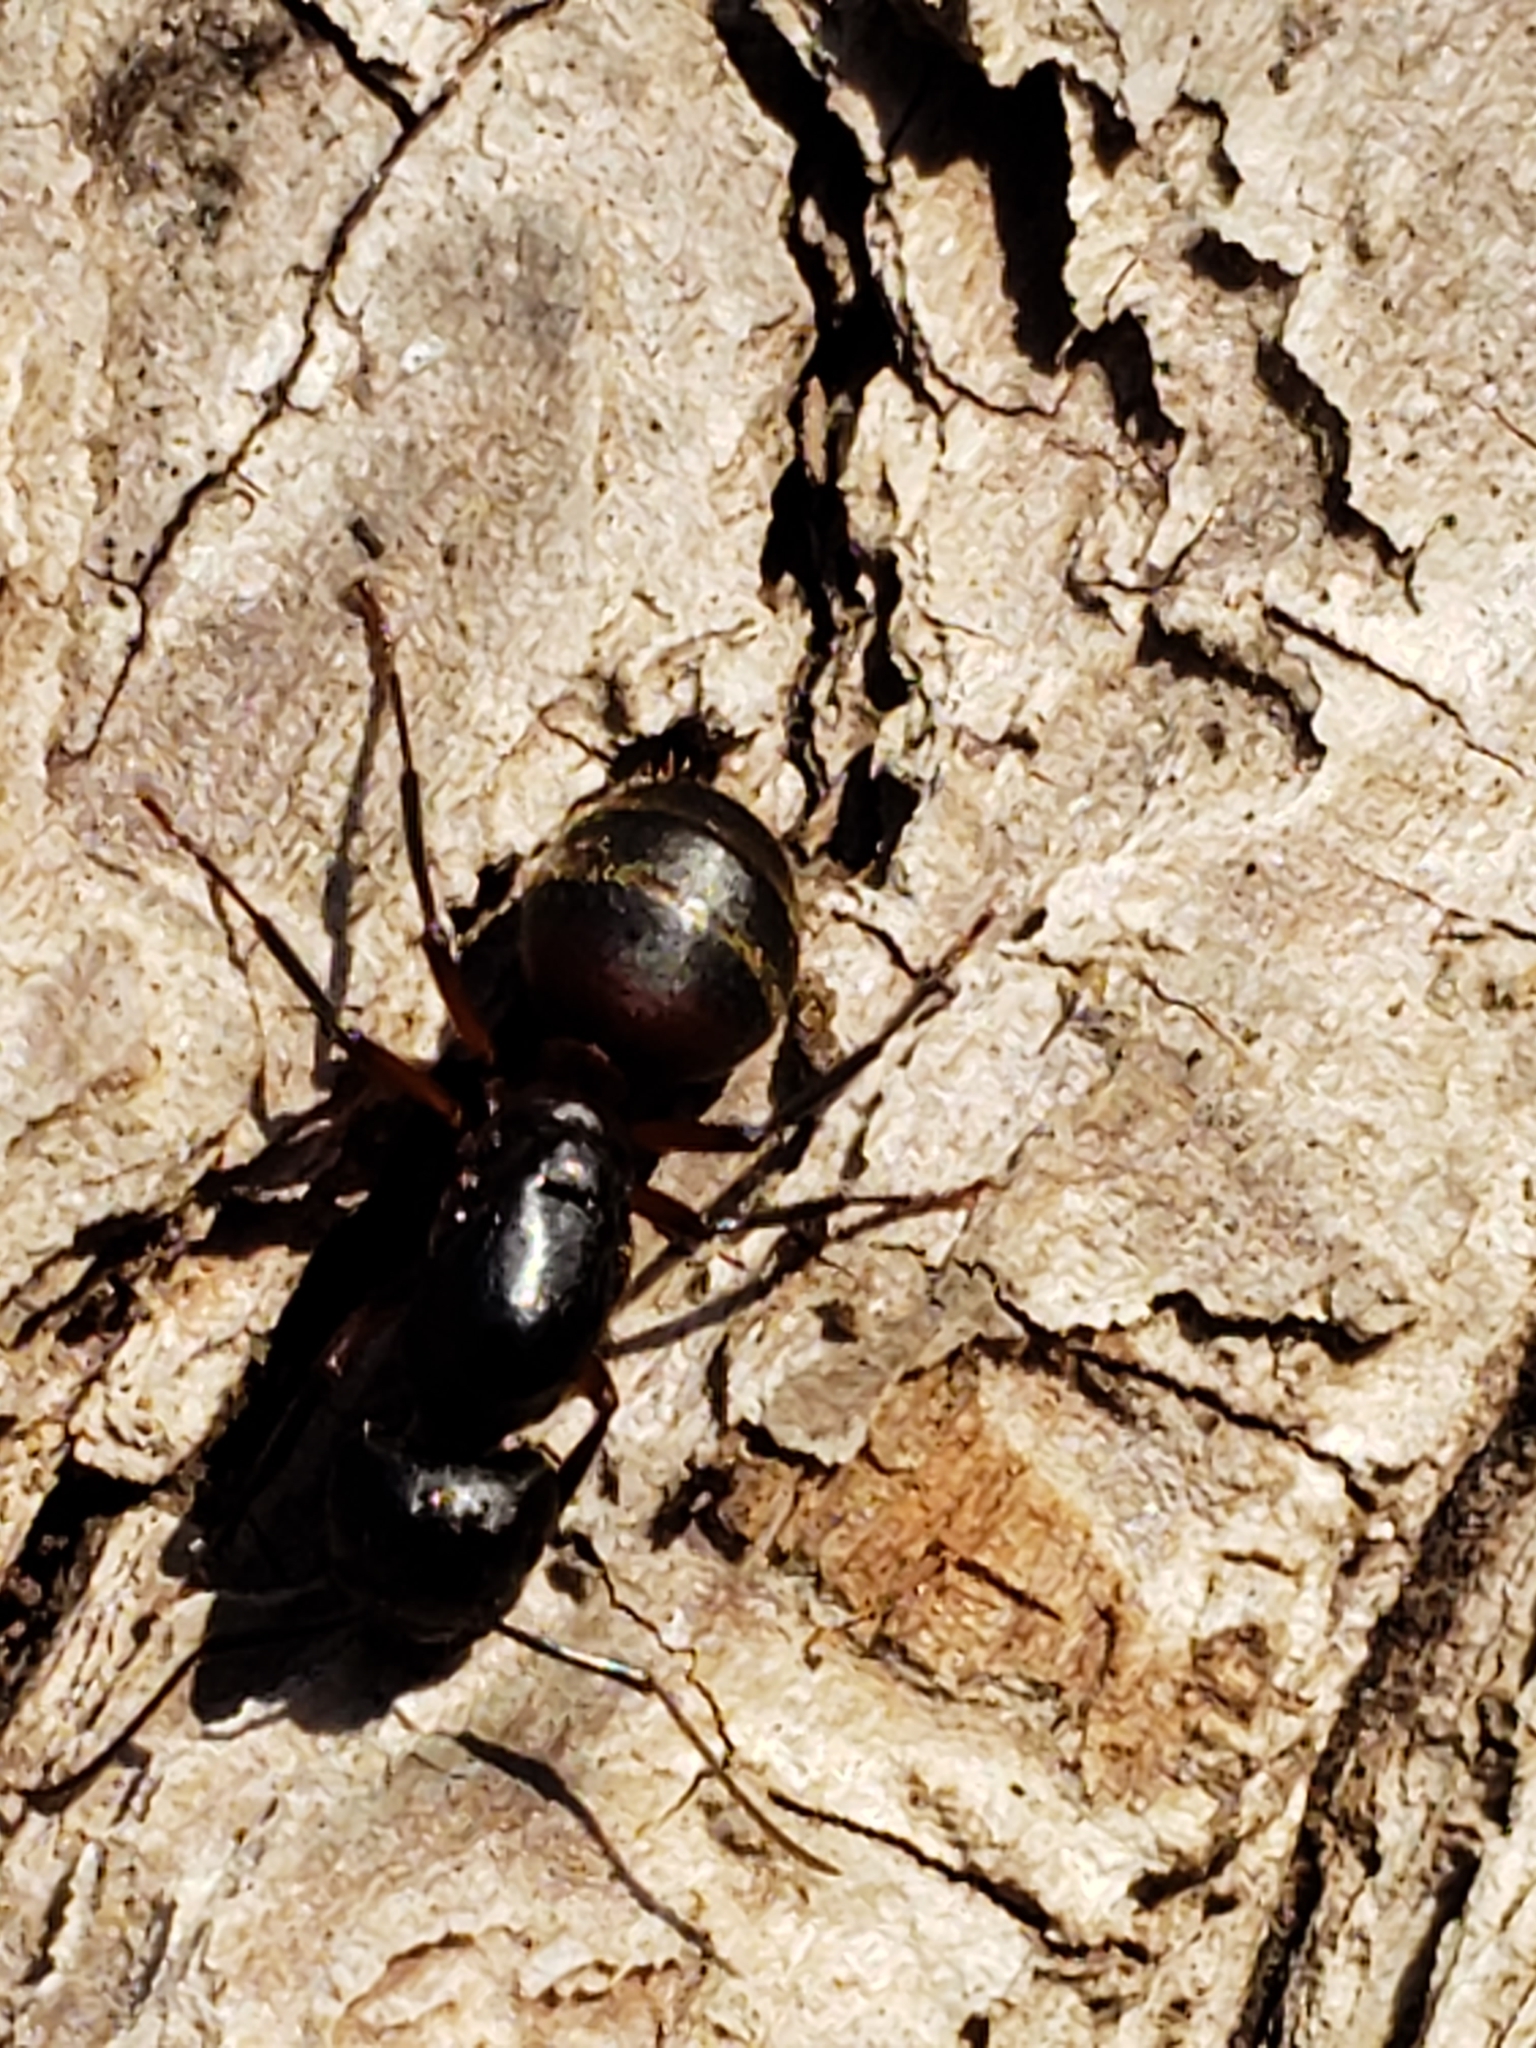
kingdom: Animalia
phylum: Arthropoda
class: Insecta
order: Hymenoptera
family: Formicidae
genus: Camponotus
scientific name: Camponotus chromaiodes
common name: Red carpenter ant
